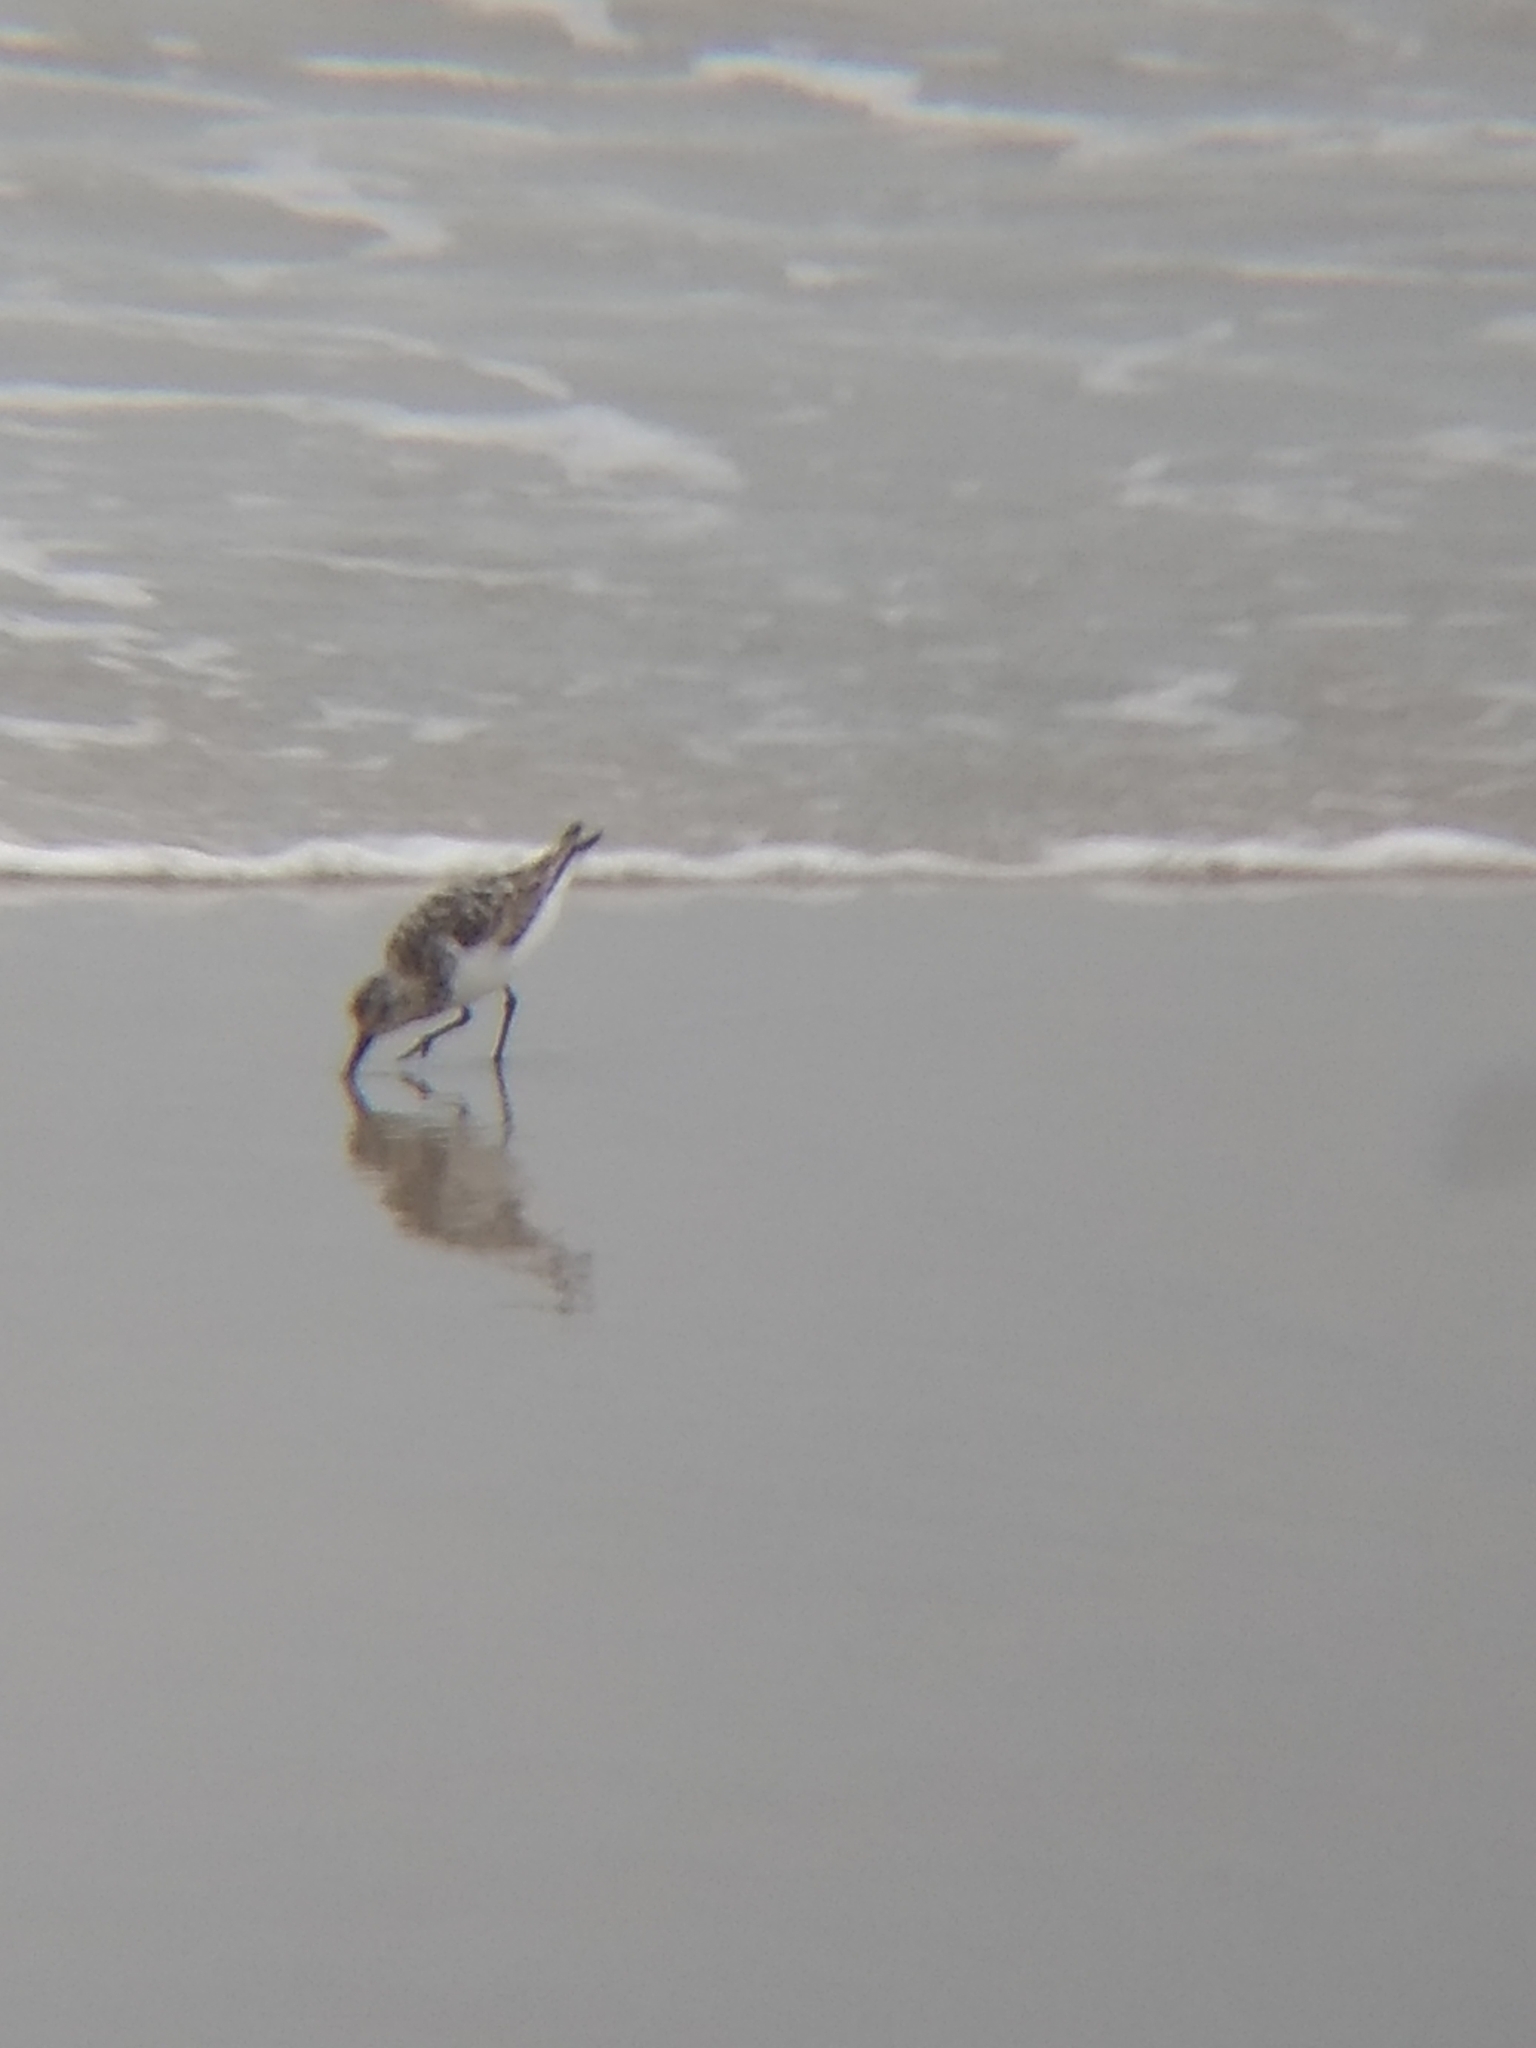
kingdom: Animalia
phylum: Chordata
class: Aves
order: Charadriiformes
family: Scolopacidae
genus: Calidris
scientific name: Calidris alba
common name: Sanderling
